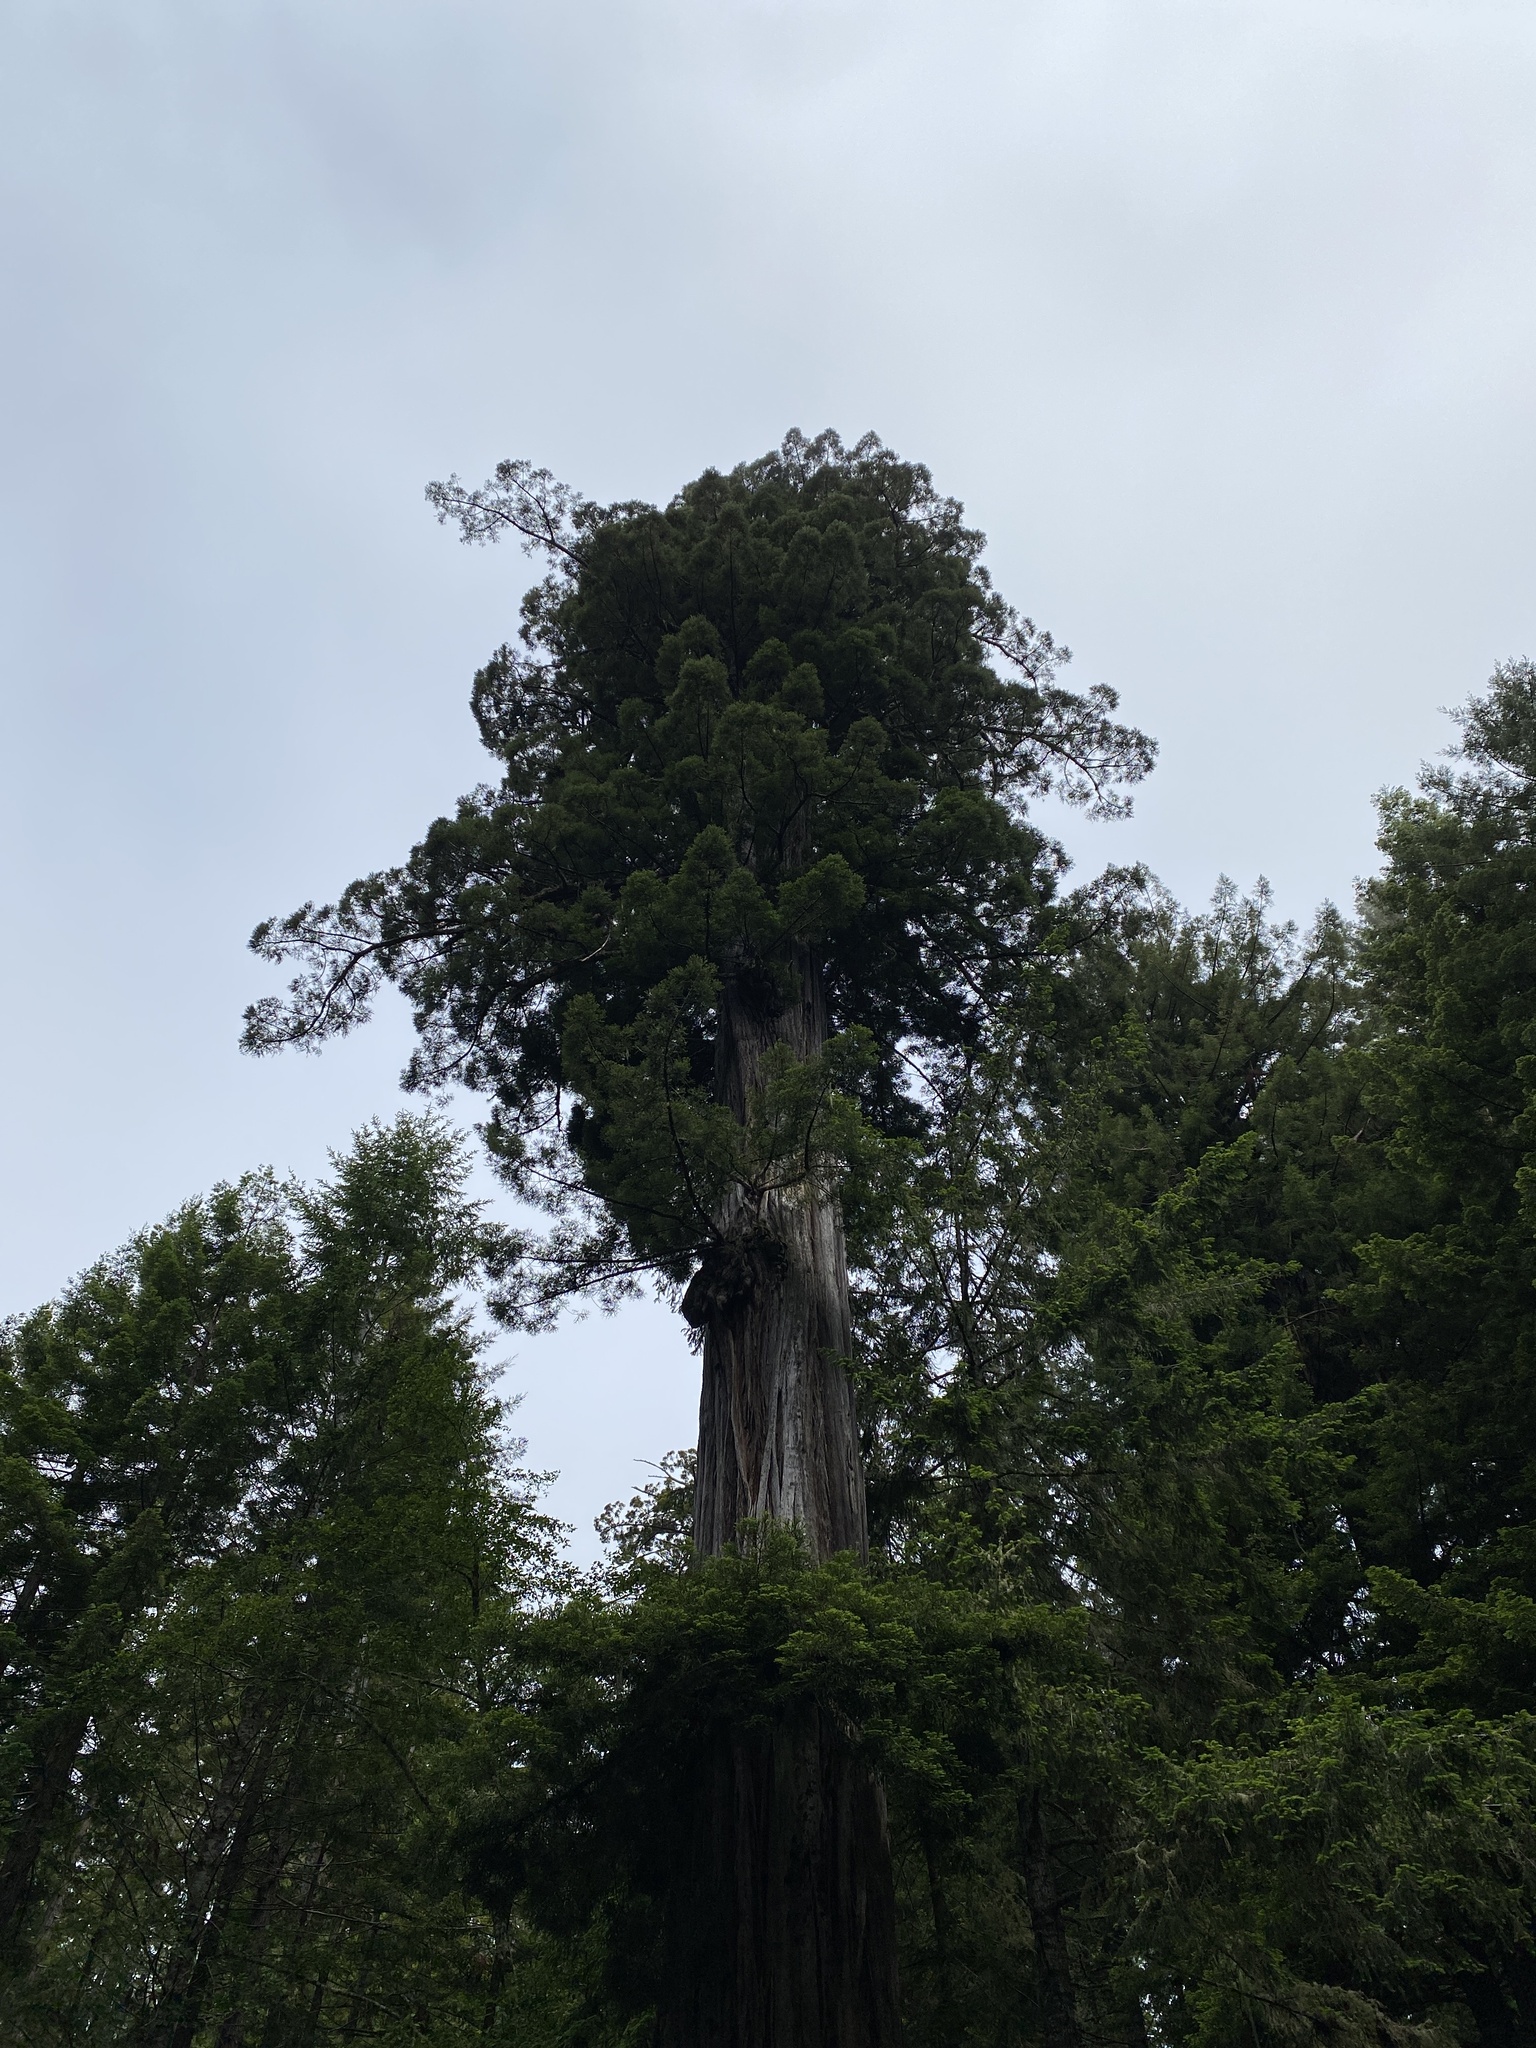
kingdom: Plantae
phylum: Tracheophyta
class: Pinopsida
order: Pinales
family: Cupressaceae
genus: Sequoia
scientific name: Sequoia sempervirens
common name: Coast redwood
